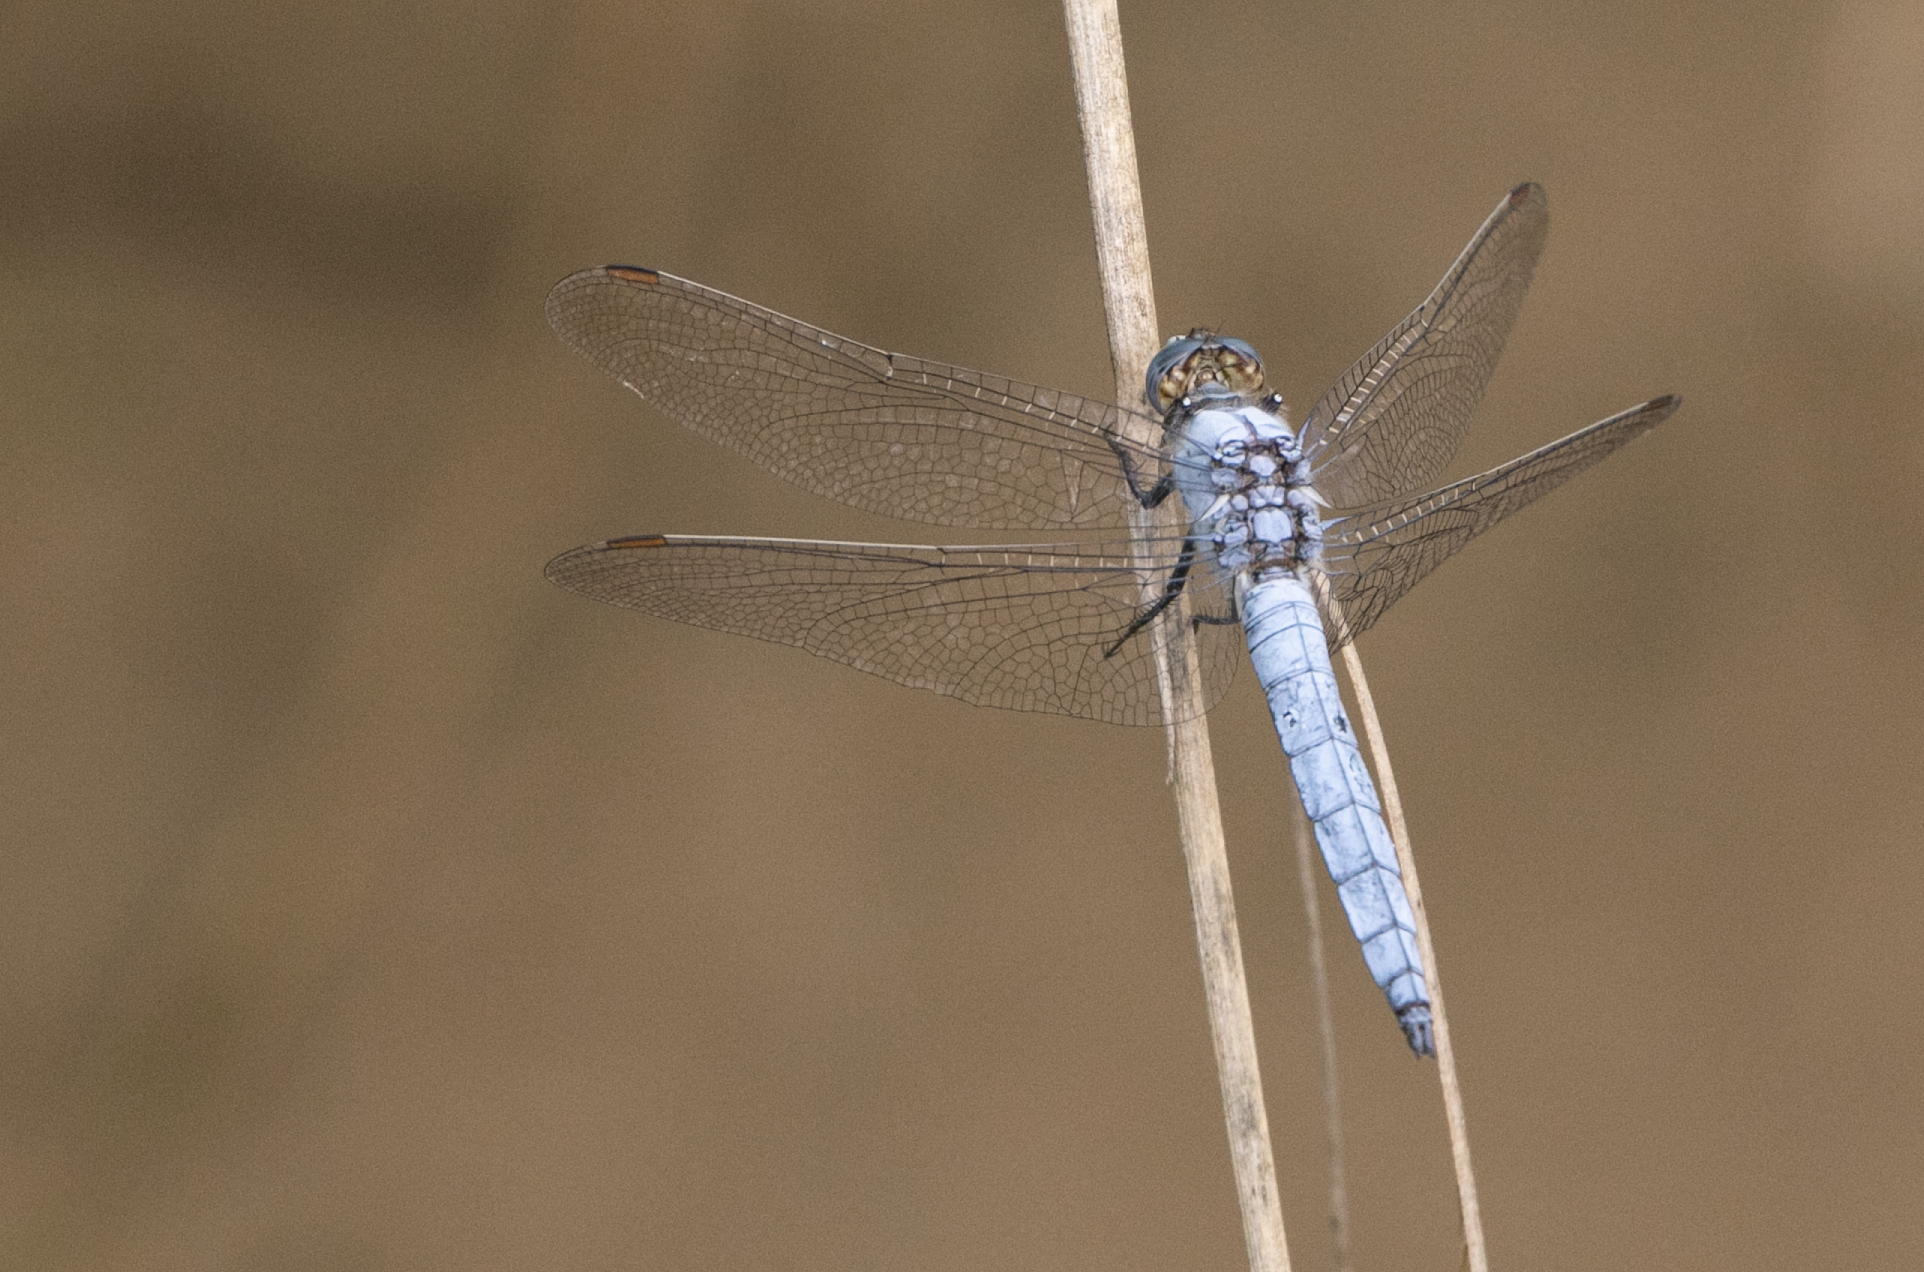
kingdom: Animalia
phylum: Arthropoda
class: Insecta
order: Odonata
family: Libellulidae
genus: Orthetrum
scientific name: Orthetrum brunneum
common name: Southern skimmer
